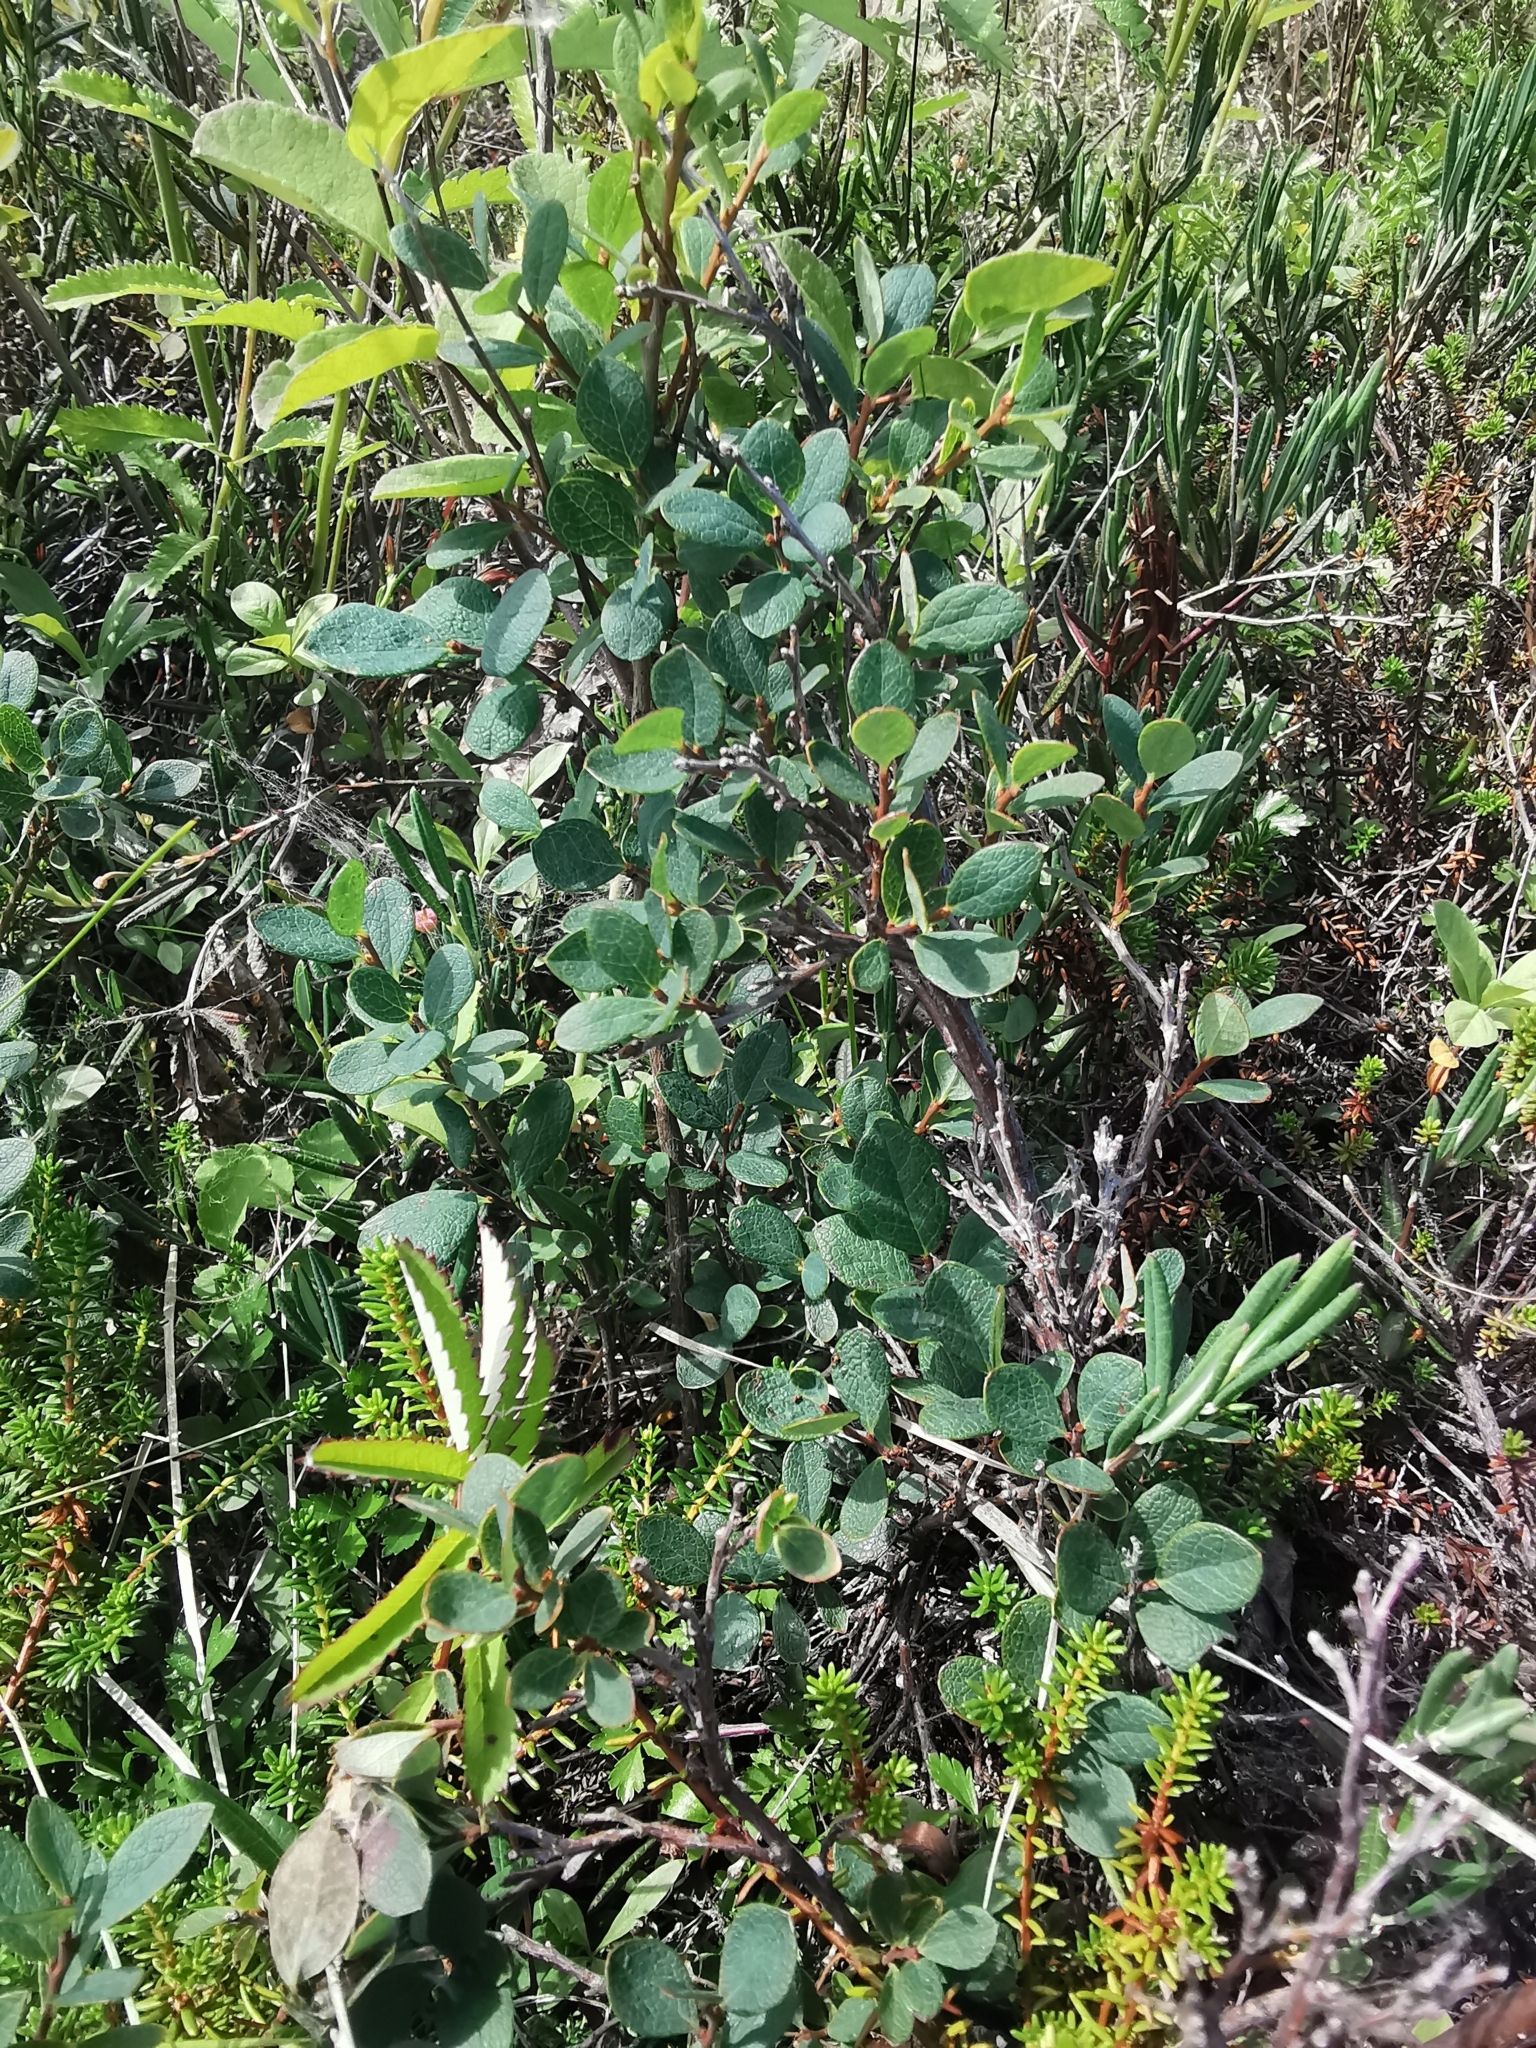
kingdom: Plantae
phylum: Tracheophyta
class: Magnoliopsida
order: Ericales
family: Ericaceae
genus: Vaccinium
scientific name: Vaccinium uliginosum
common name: Bog bilberry
